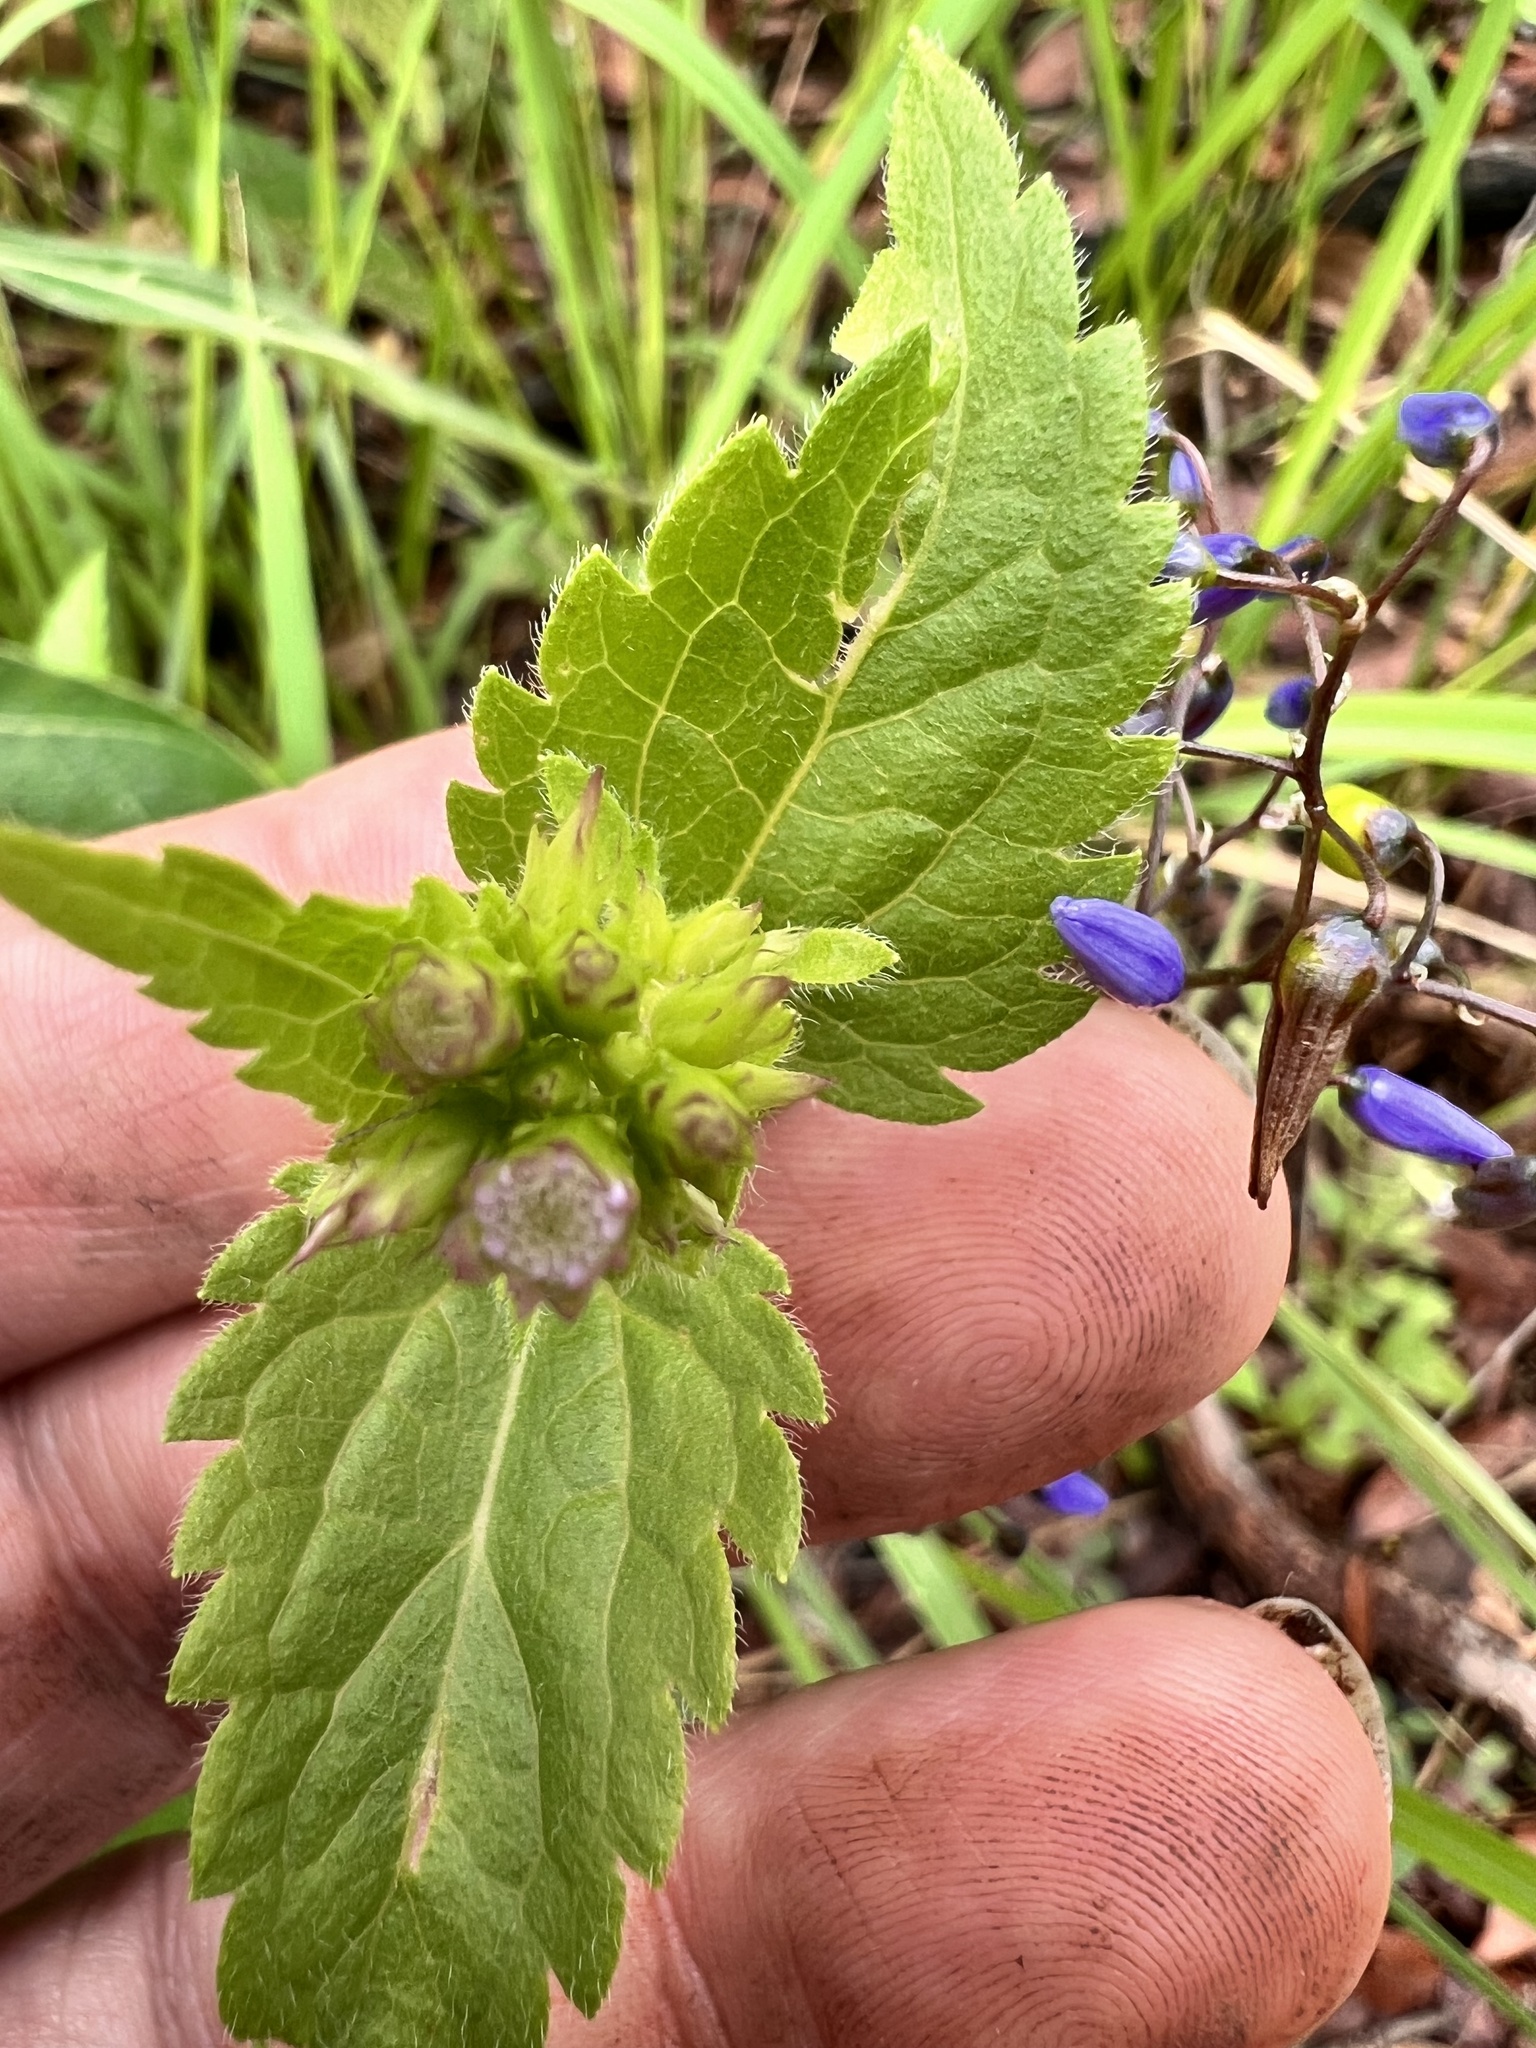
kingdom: Plantae
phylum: Tracheophyta
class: Magnoliopsida
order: Asterales
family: Asteraceae
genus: Praxelis
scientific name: Praxelis clematidea
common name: Praxelis
